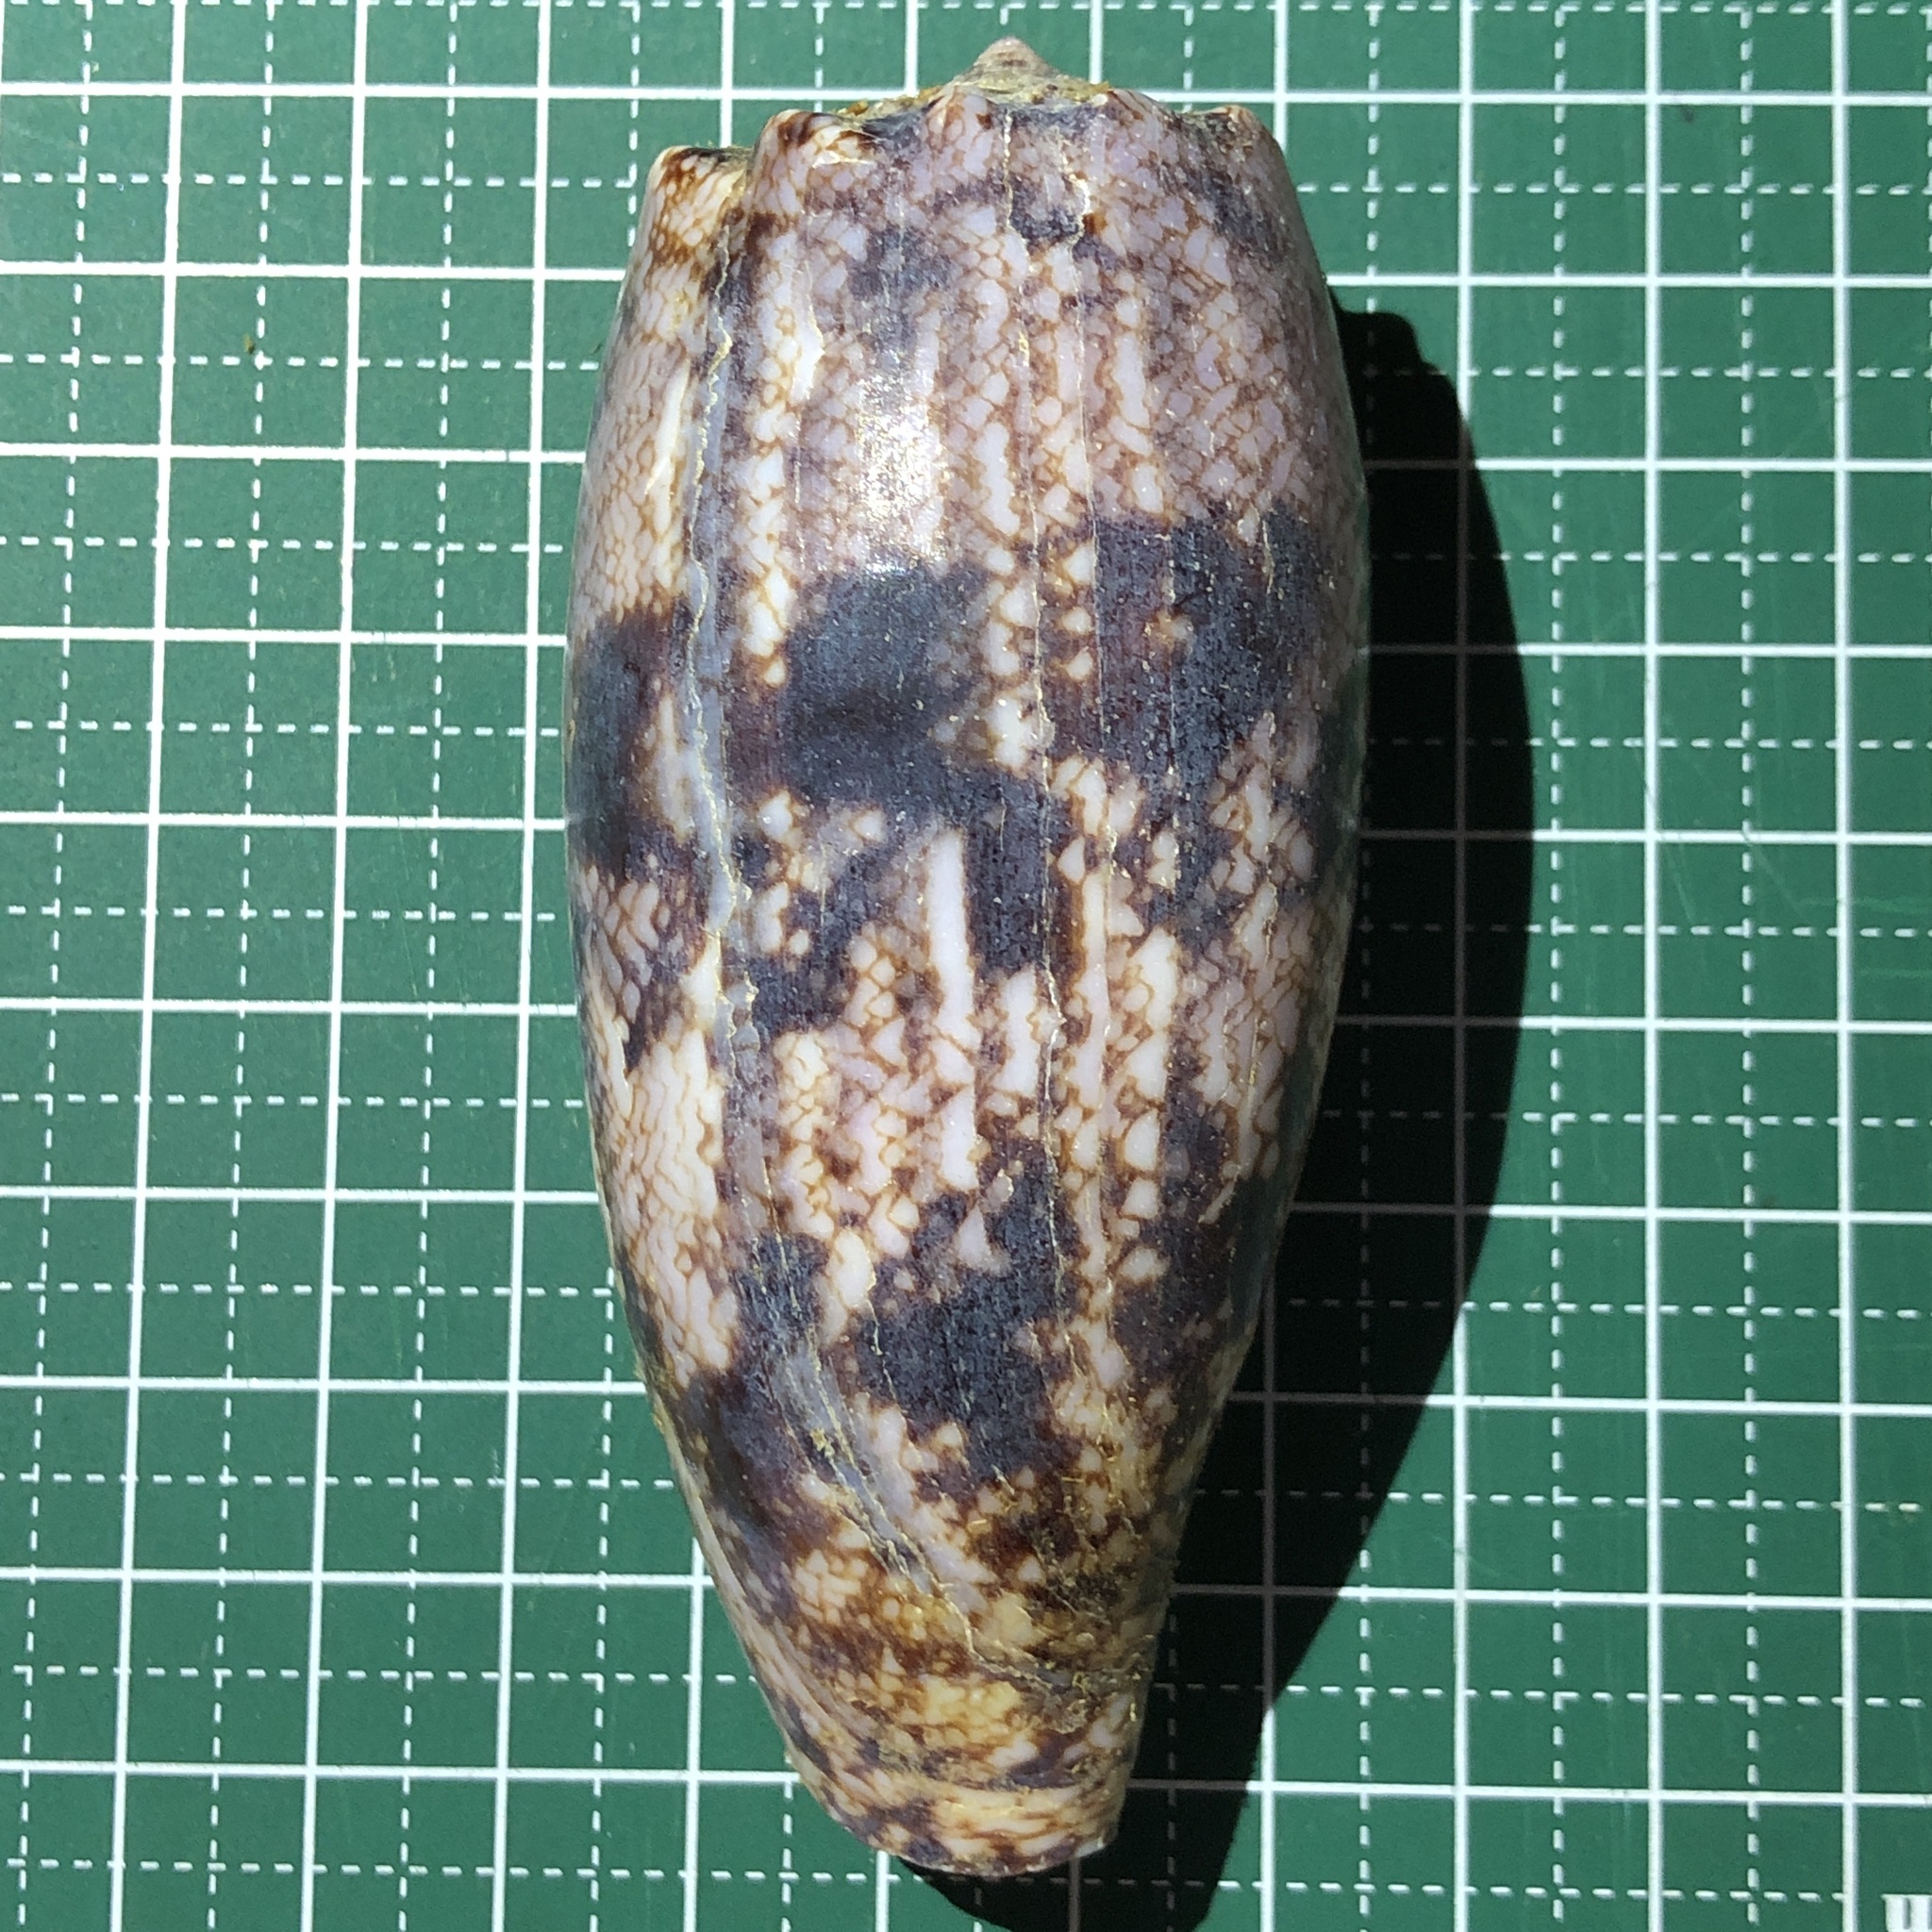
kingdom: Animalia
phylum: Mollusca
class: Gastropoda
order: Neogastropoda
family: Conidae
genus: Conus
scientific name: Conus geographus
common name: Geographer cone
